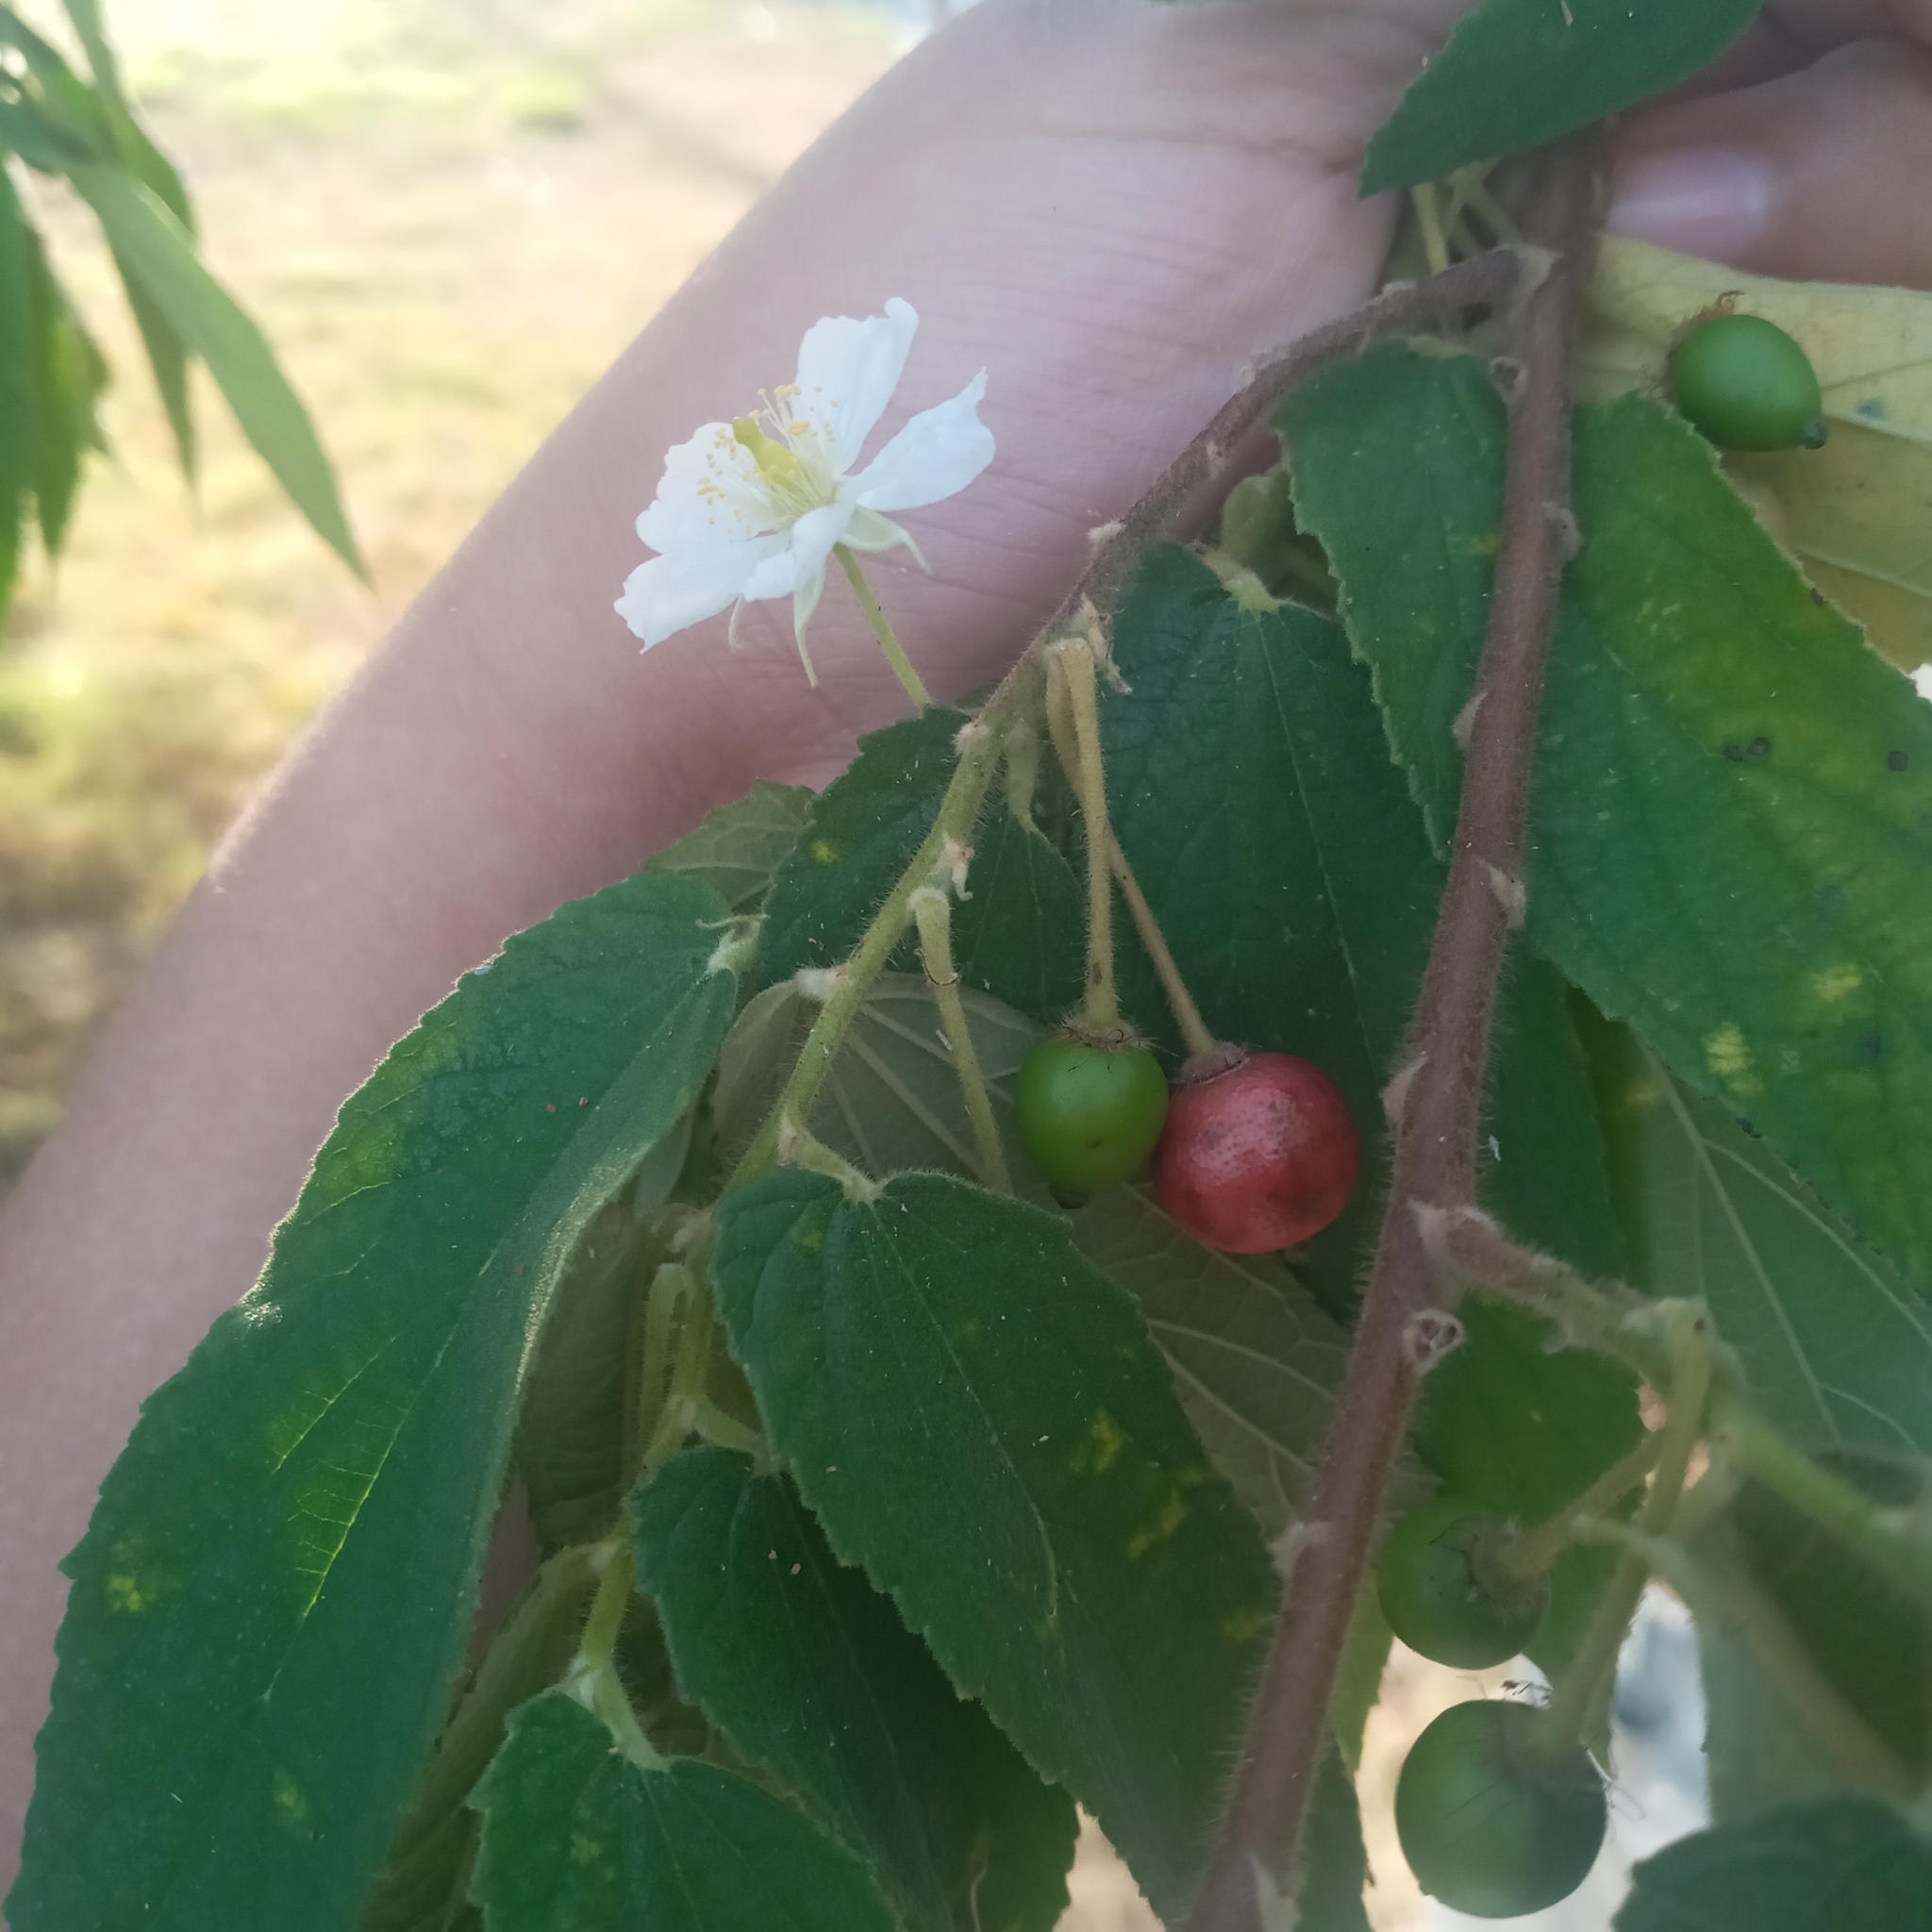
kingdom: Plantae
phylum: Tracheophyta
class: Magnoliopsida
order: Malvales
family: Muntingiaceae
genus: Muntingia
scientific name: Muntingia calabura
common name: Strawberrytree
